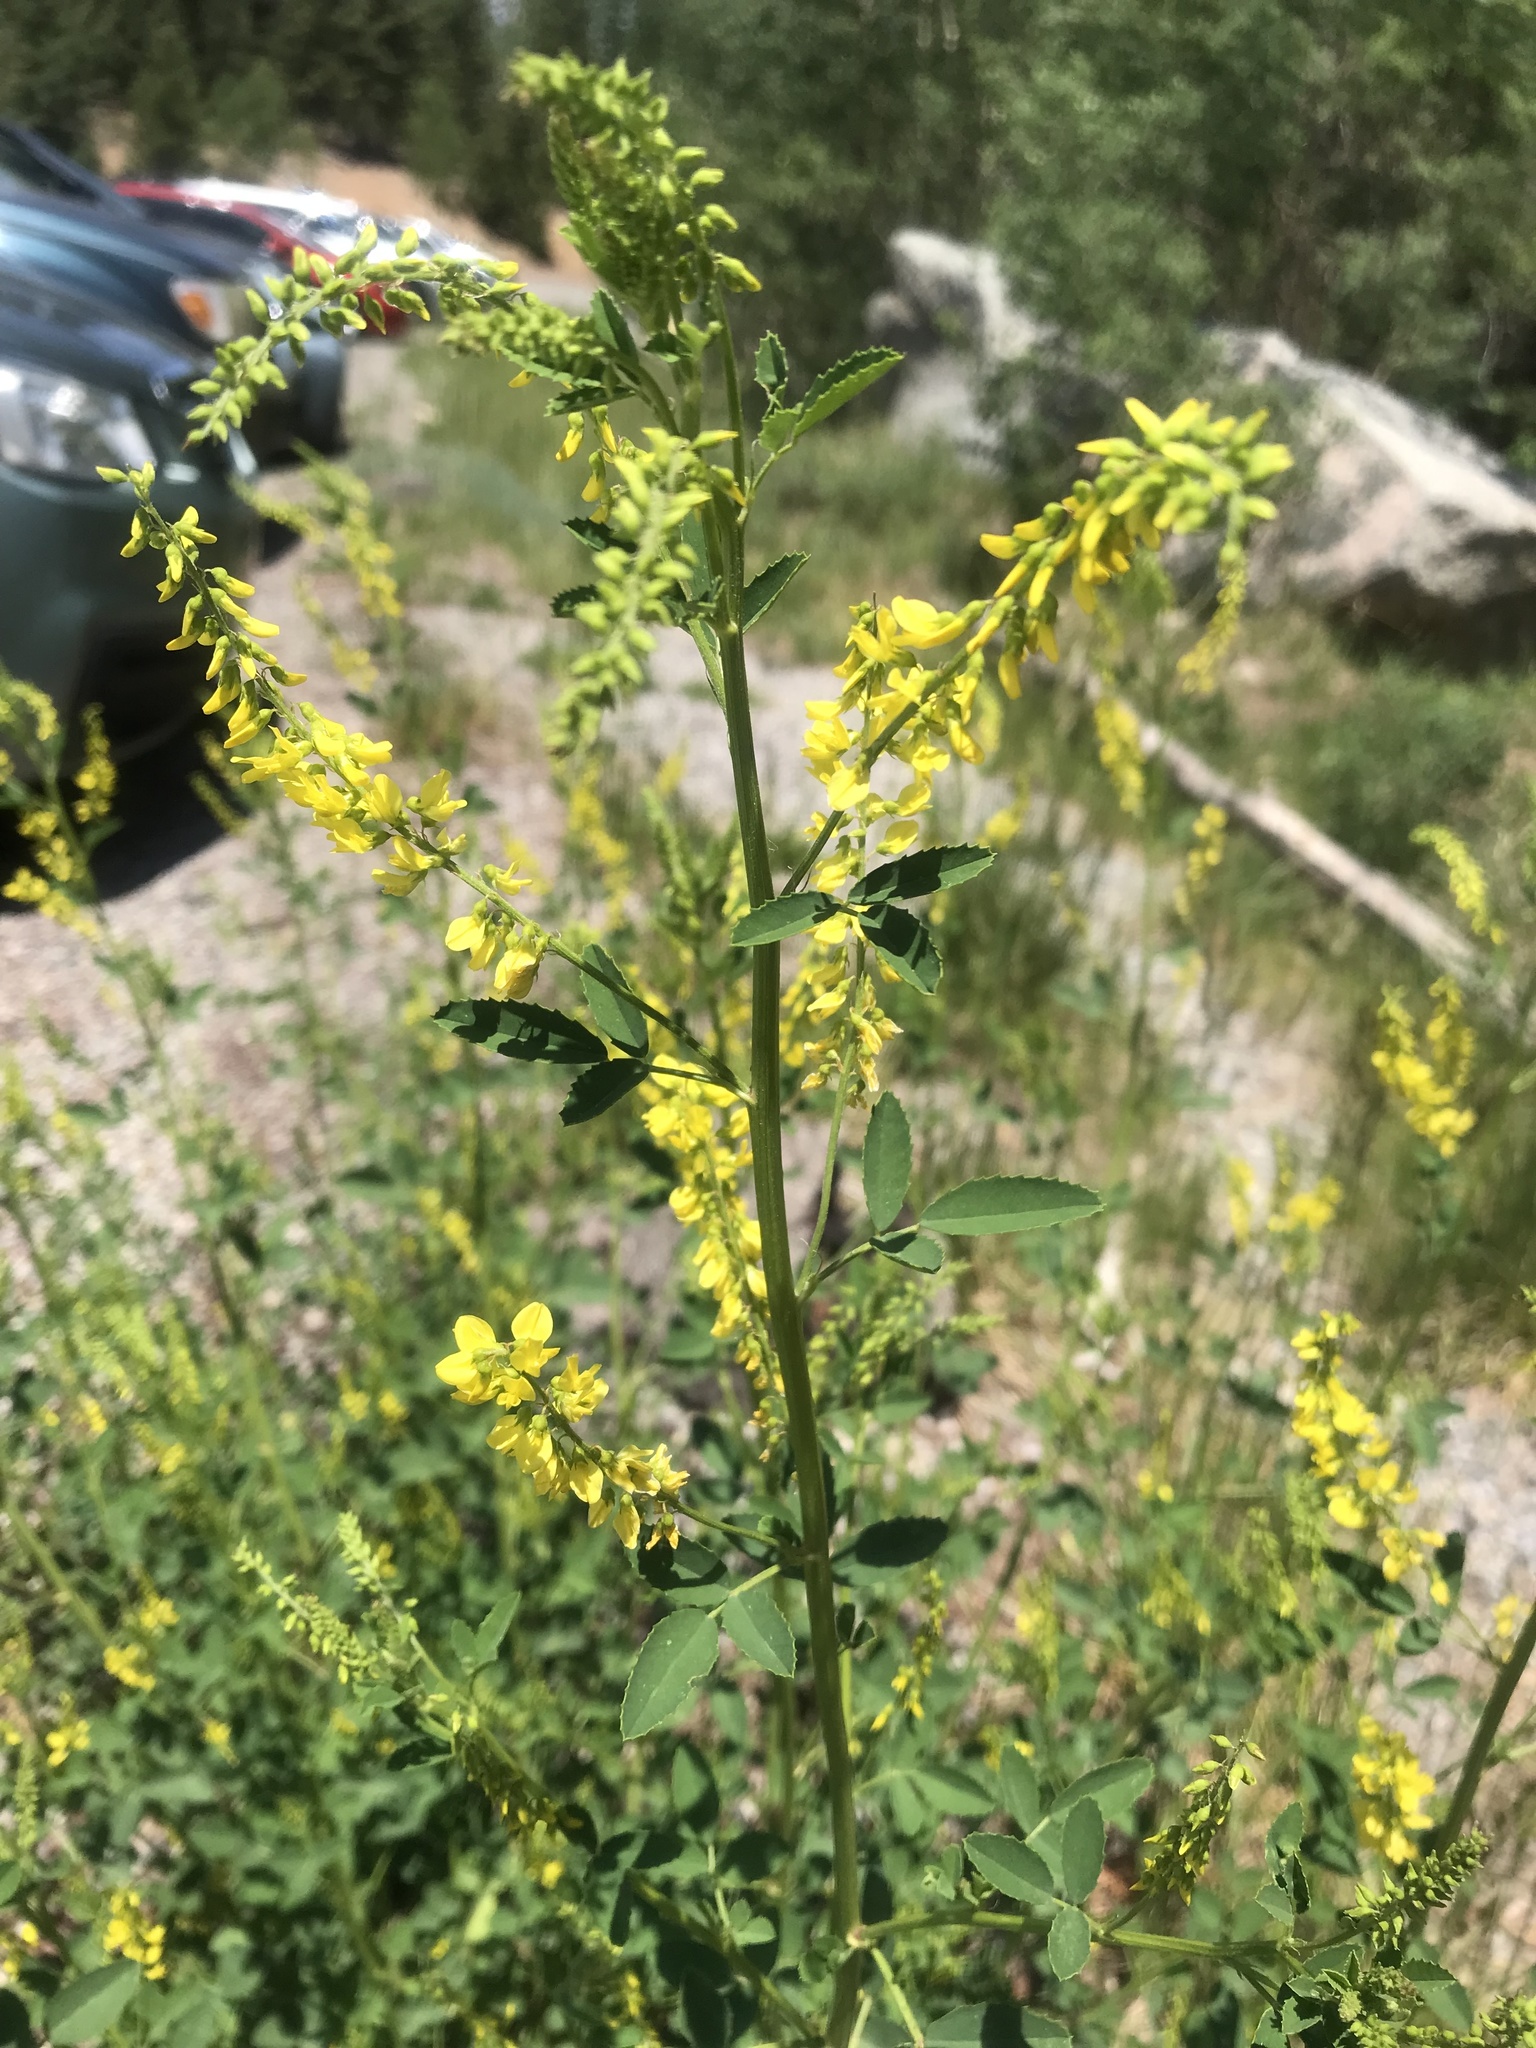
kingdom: Plantae
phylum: Tracheophyta
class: Magnoliopsida
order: Fabales
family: Fabaceae
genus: Melilotus
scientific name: Melilotus officinalis
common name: Sweetclover
